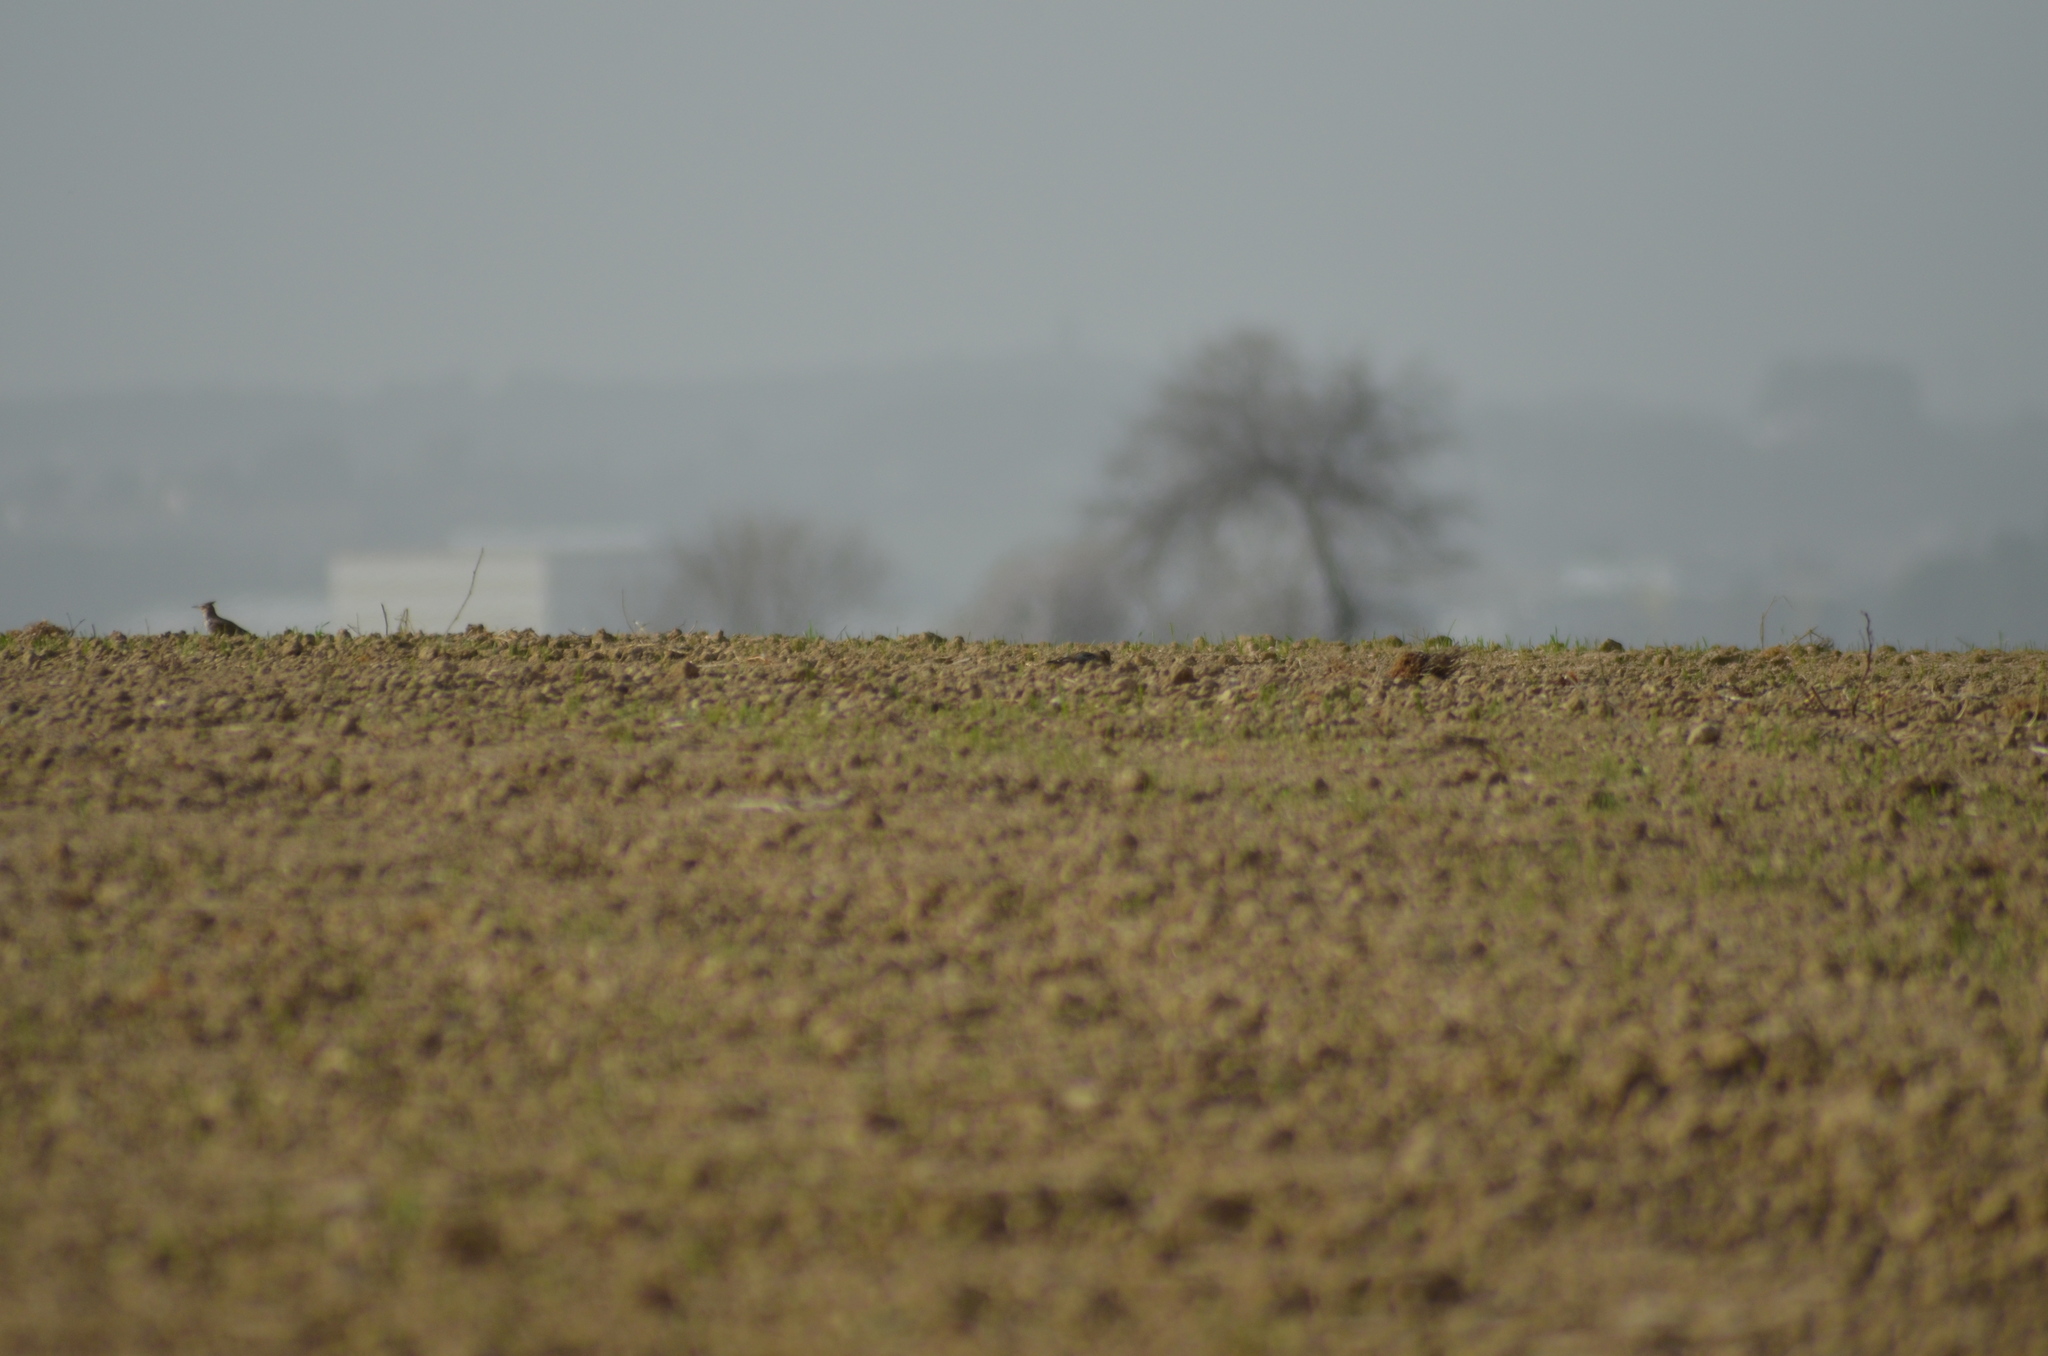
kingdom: Animalia
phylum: Chordata
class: Aves
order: Passeriformes
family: Alaudidae
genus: Galerida
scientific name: Galerida cristata
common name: Crested lark
